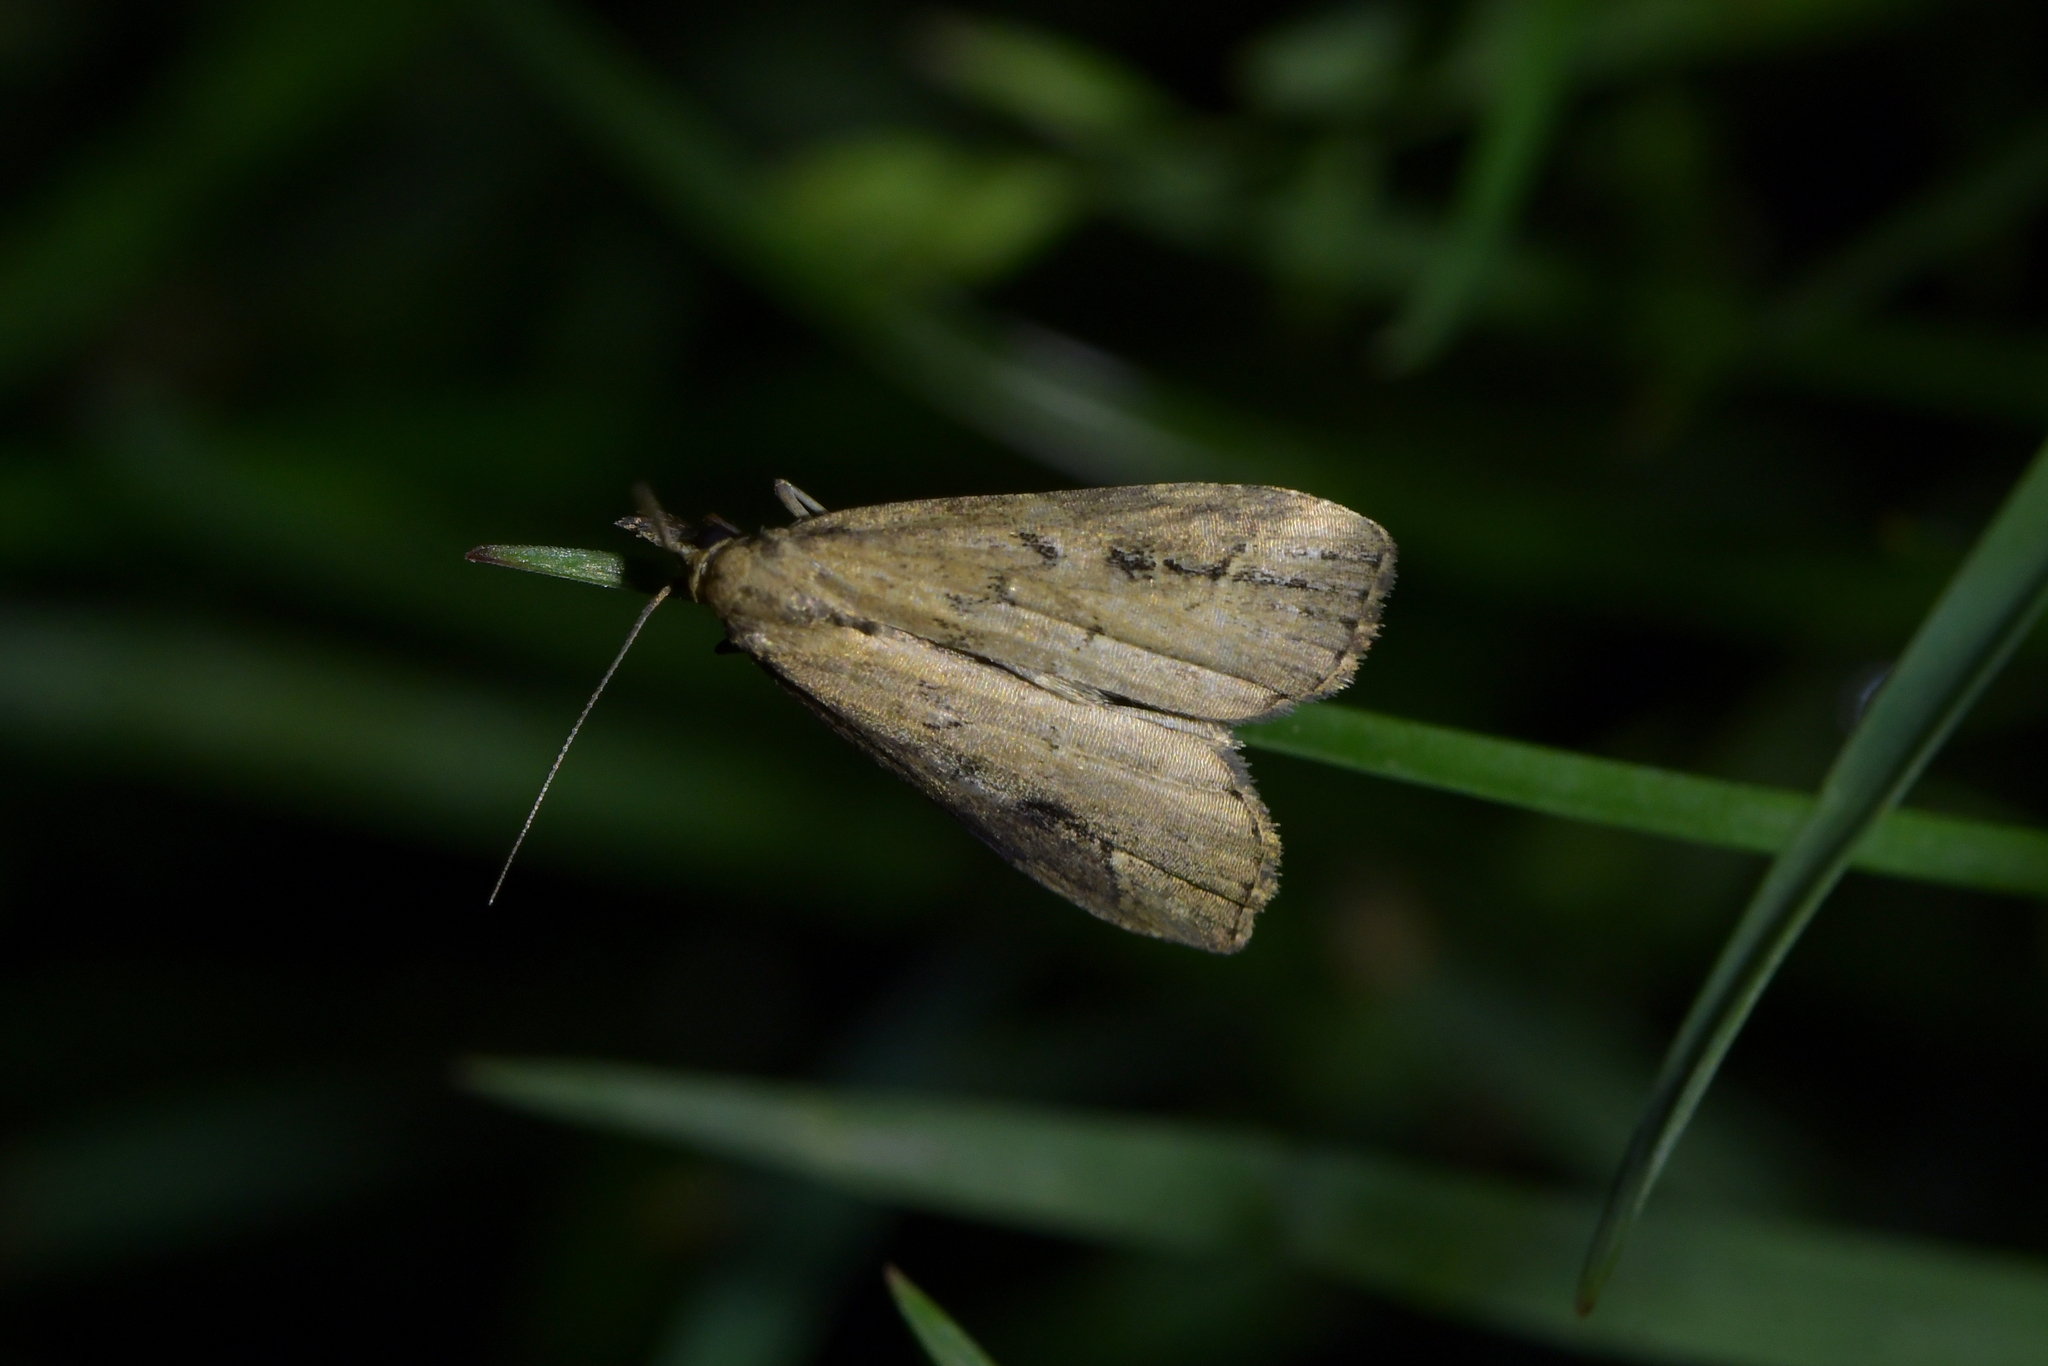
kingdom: Animalia
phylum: Arthropoda
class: Insecta
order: Lepidoptera
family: Erebidae
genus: Schrankia
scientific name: Schrankia costaestrigalis
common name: Pinion-streaked snout
